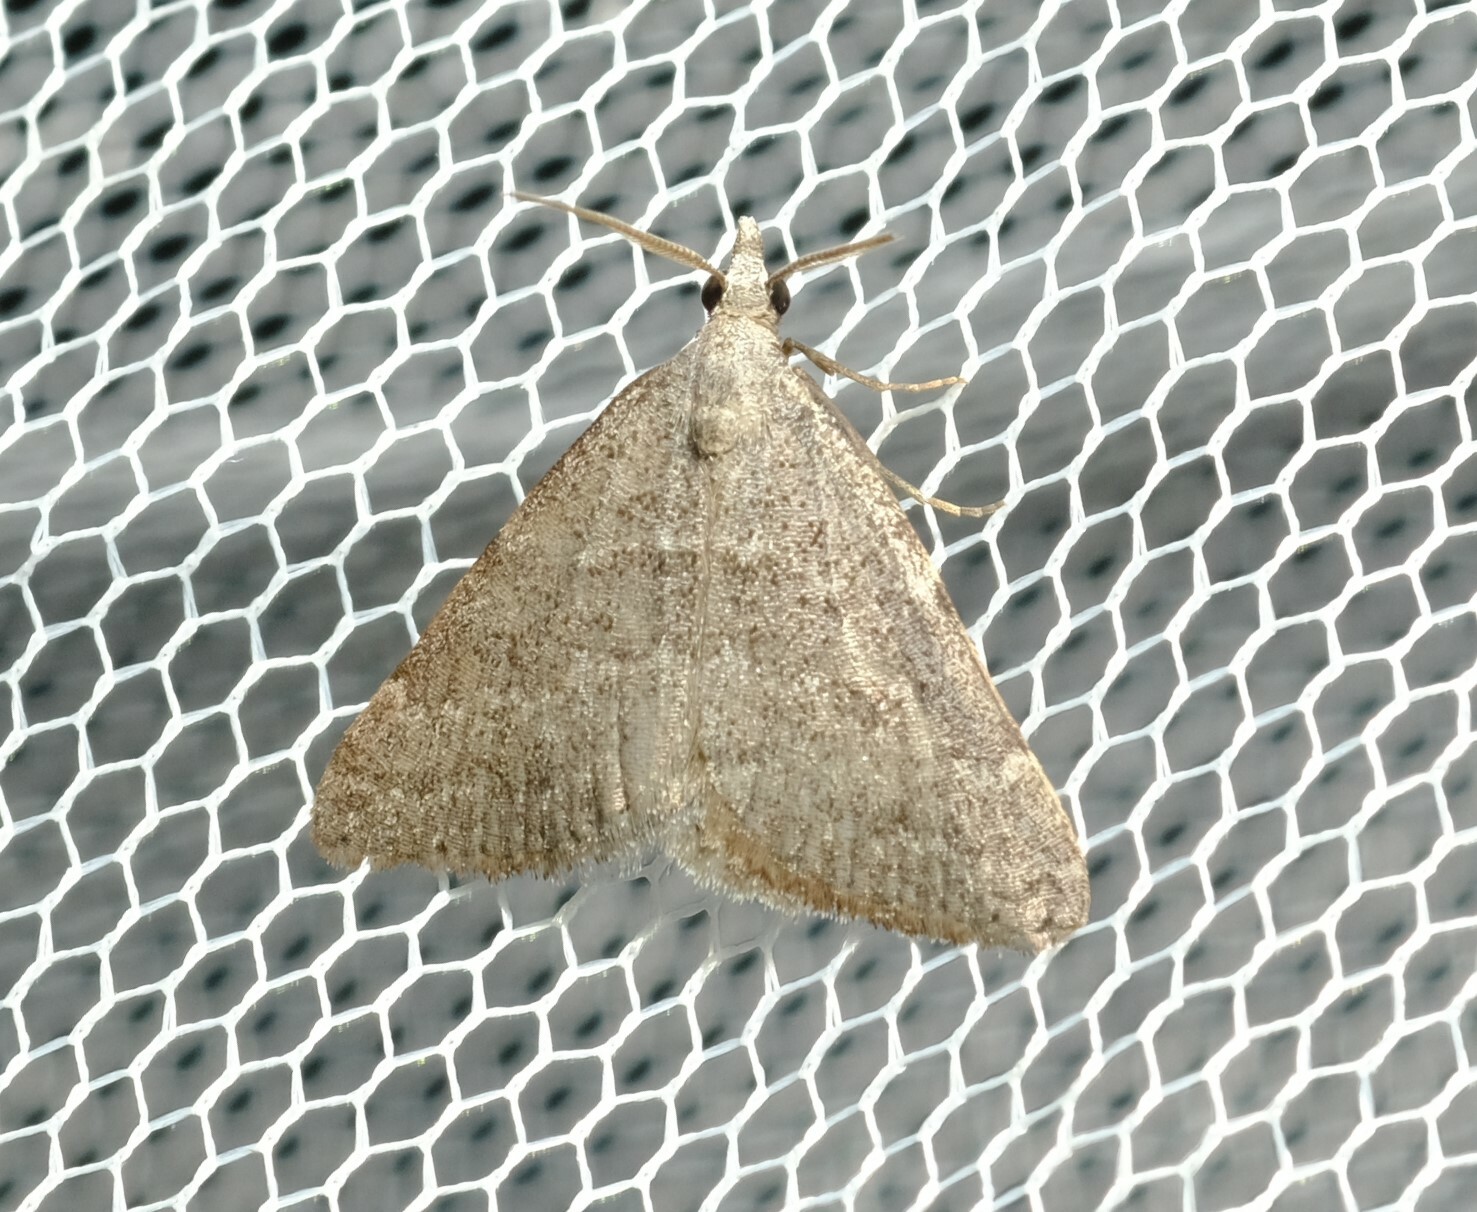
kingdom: Animalia
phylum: Arthropoda
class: Insecta
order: Lepidoptera
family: Geometridae
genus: Dichromodes
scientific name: Dichromodes indicataria
